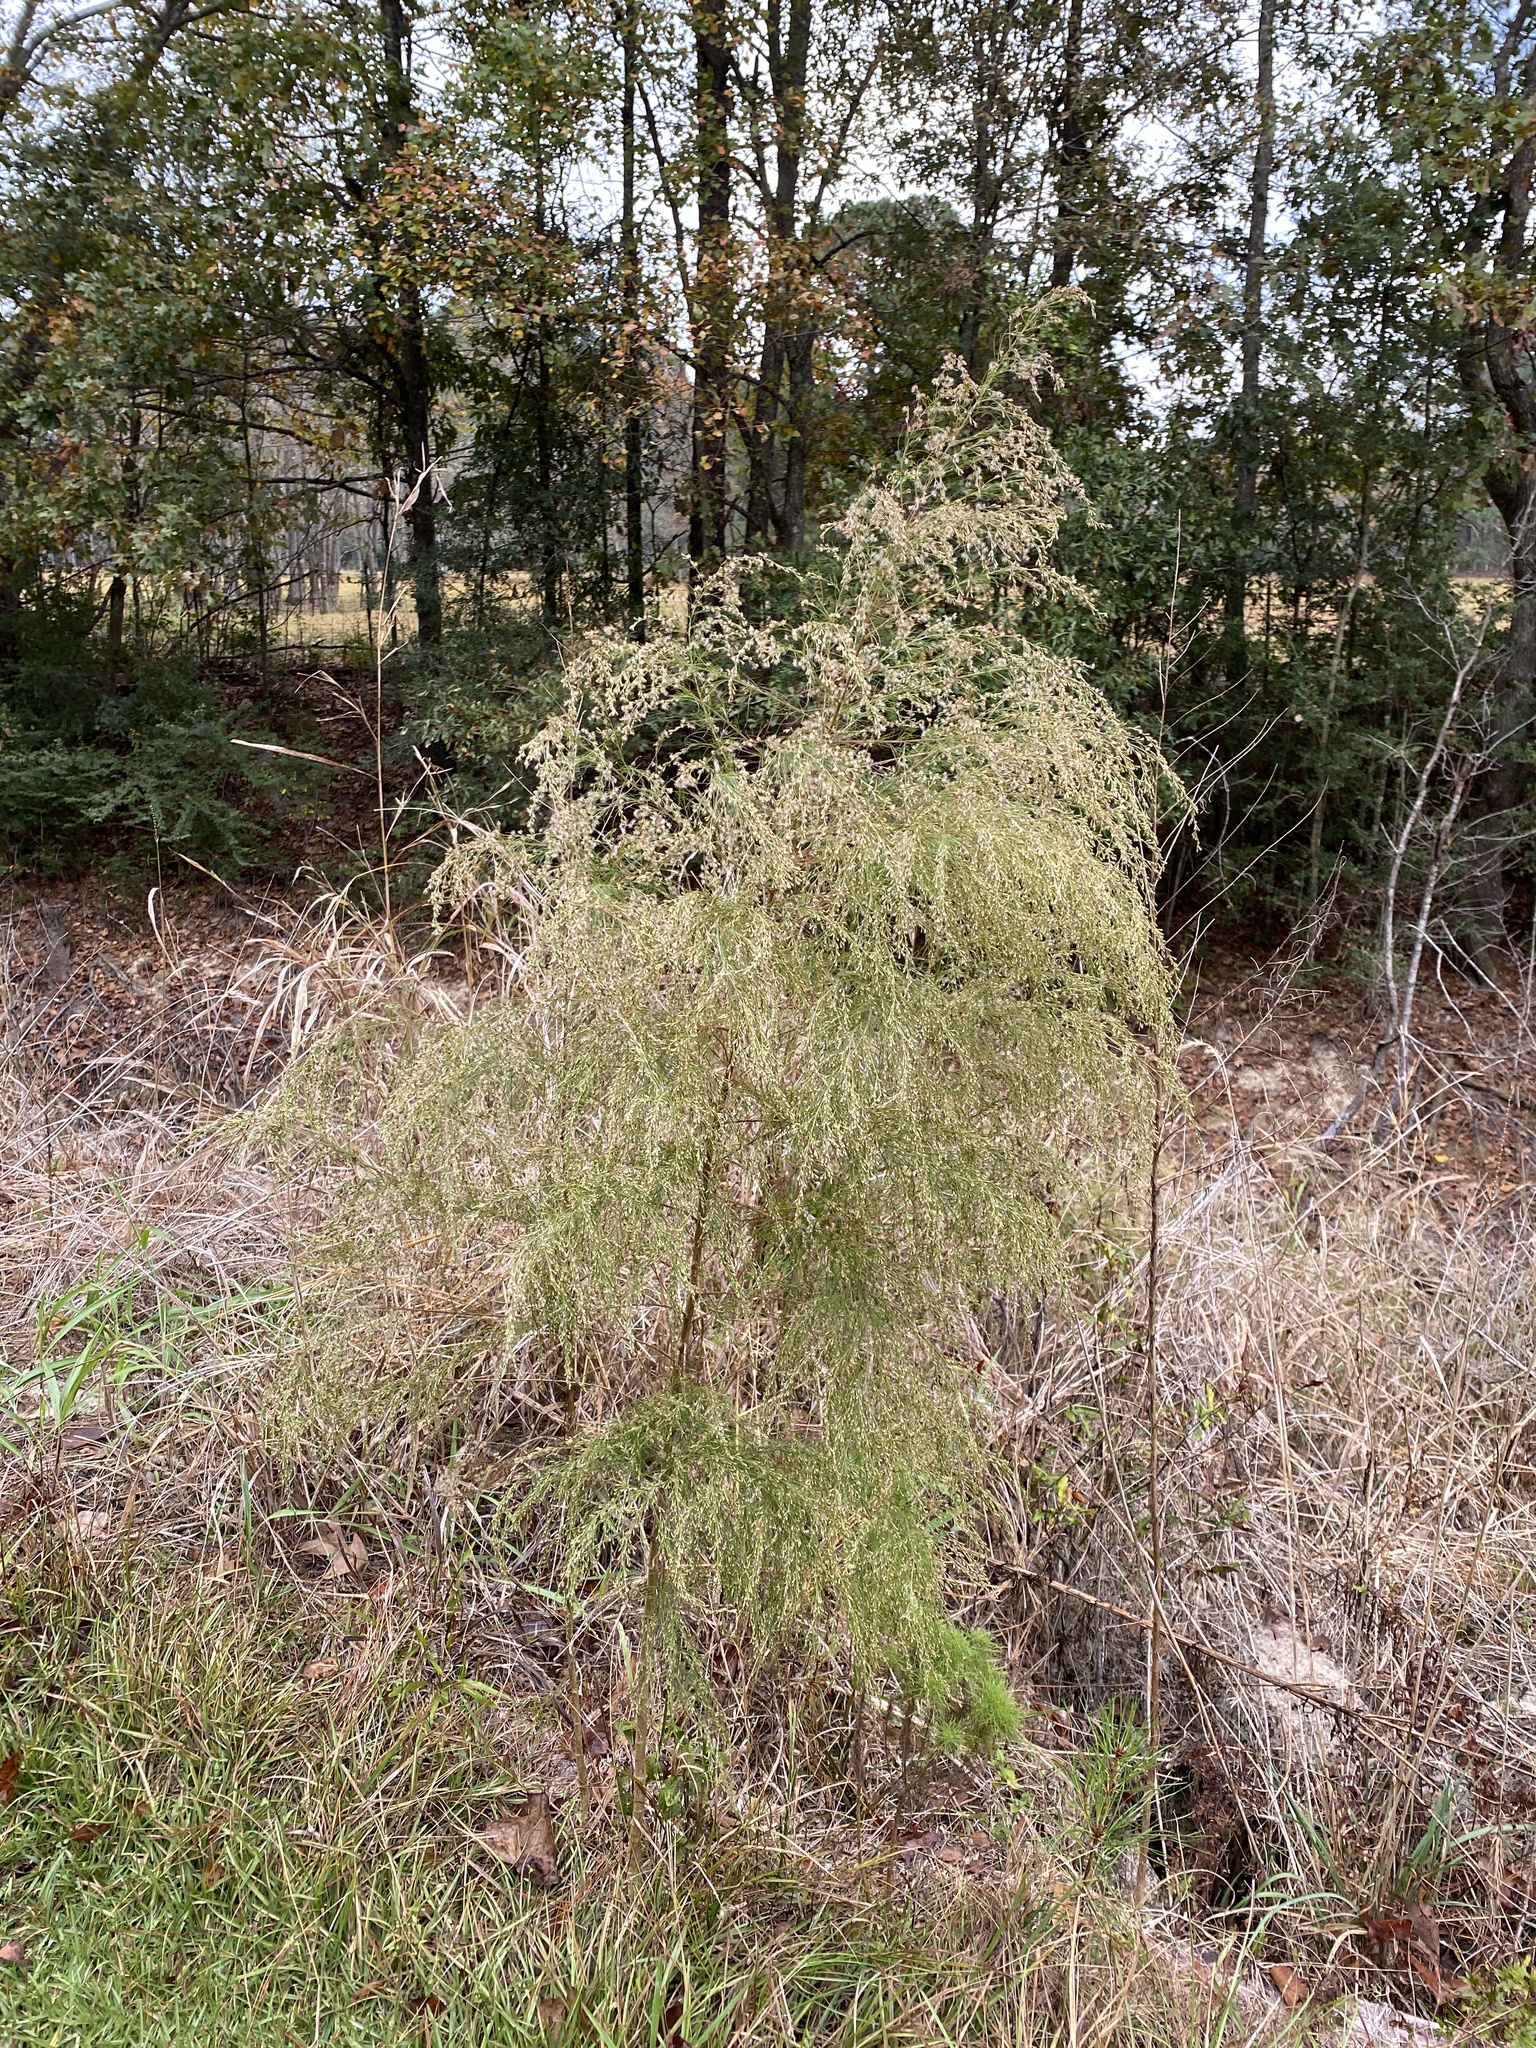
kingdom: Plantae
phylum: Tracheophyta
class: Magnoliopsida
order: Asterales
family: Asteraceae
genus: Eupatorium
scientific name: Eupatorium capillifolium
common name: Dog-fennel
